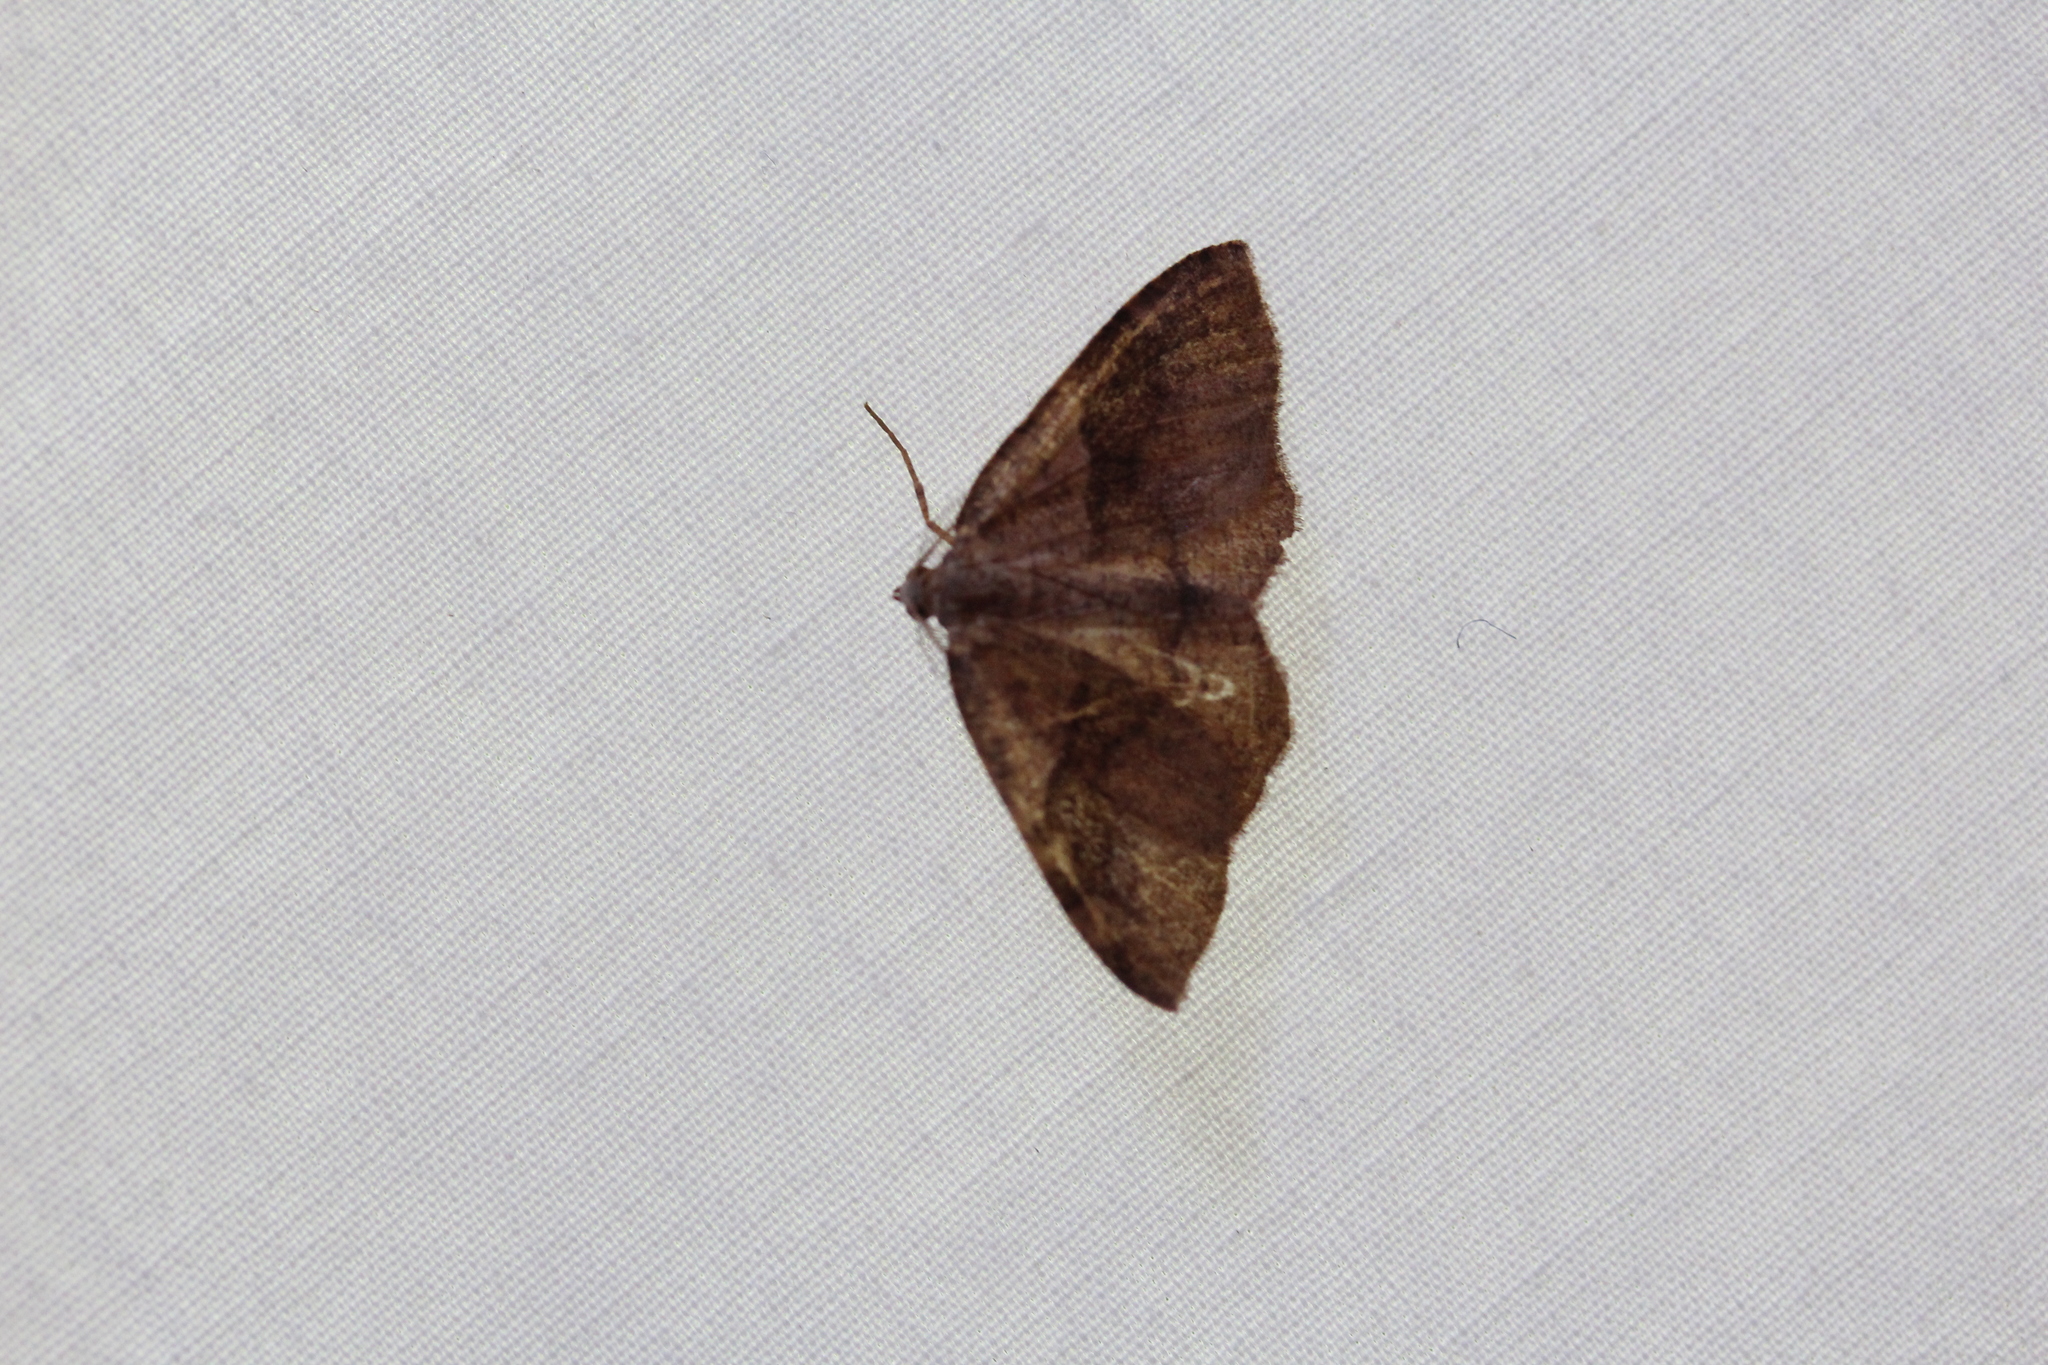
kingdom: Animalia
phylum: Arthropoda
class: Insecta
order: Lepidoptera
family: Geometridae
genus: Plagodis
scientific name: Plagodis pulveraria
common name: Barred umber
